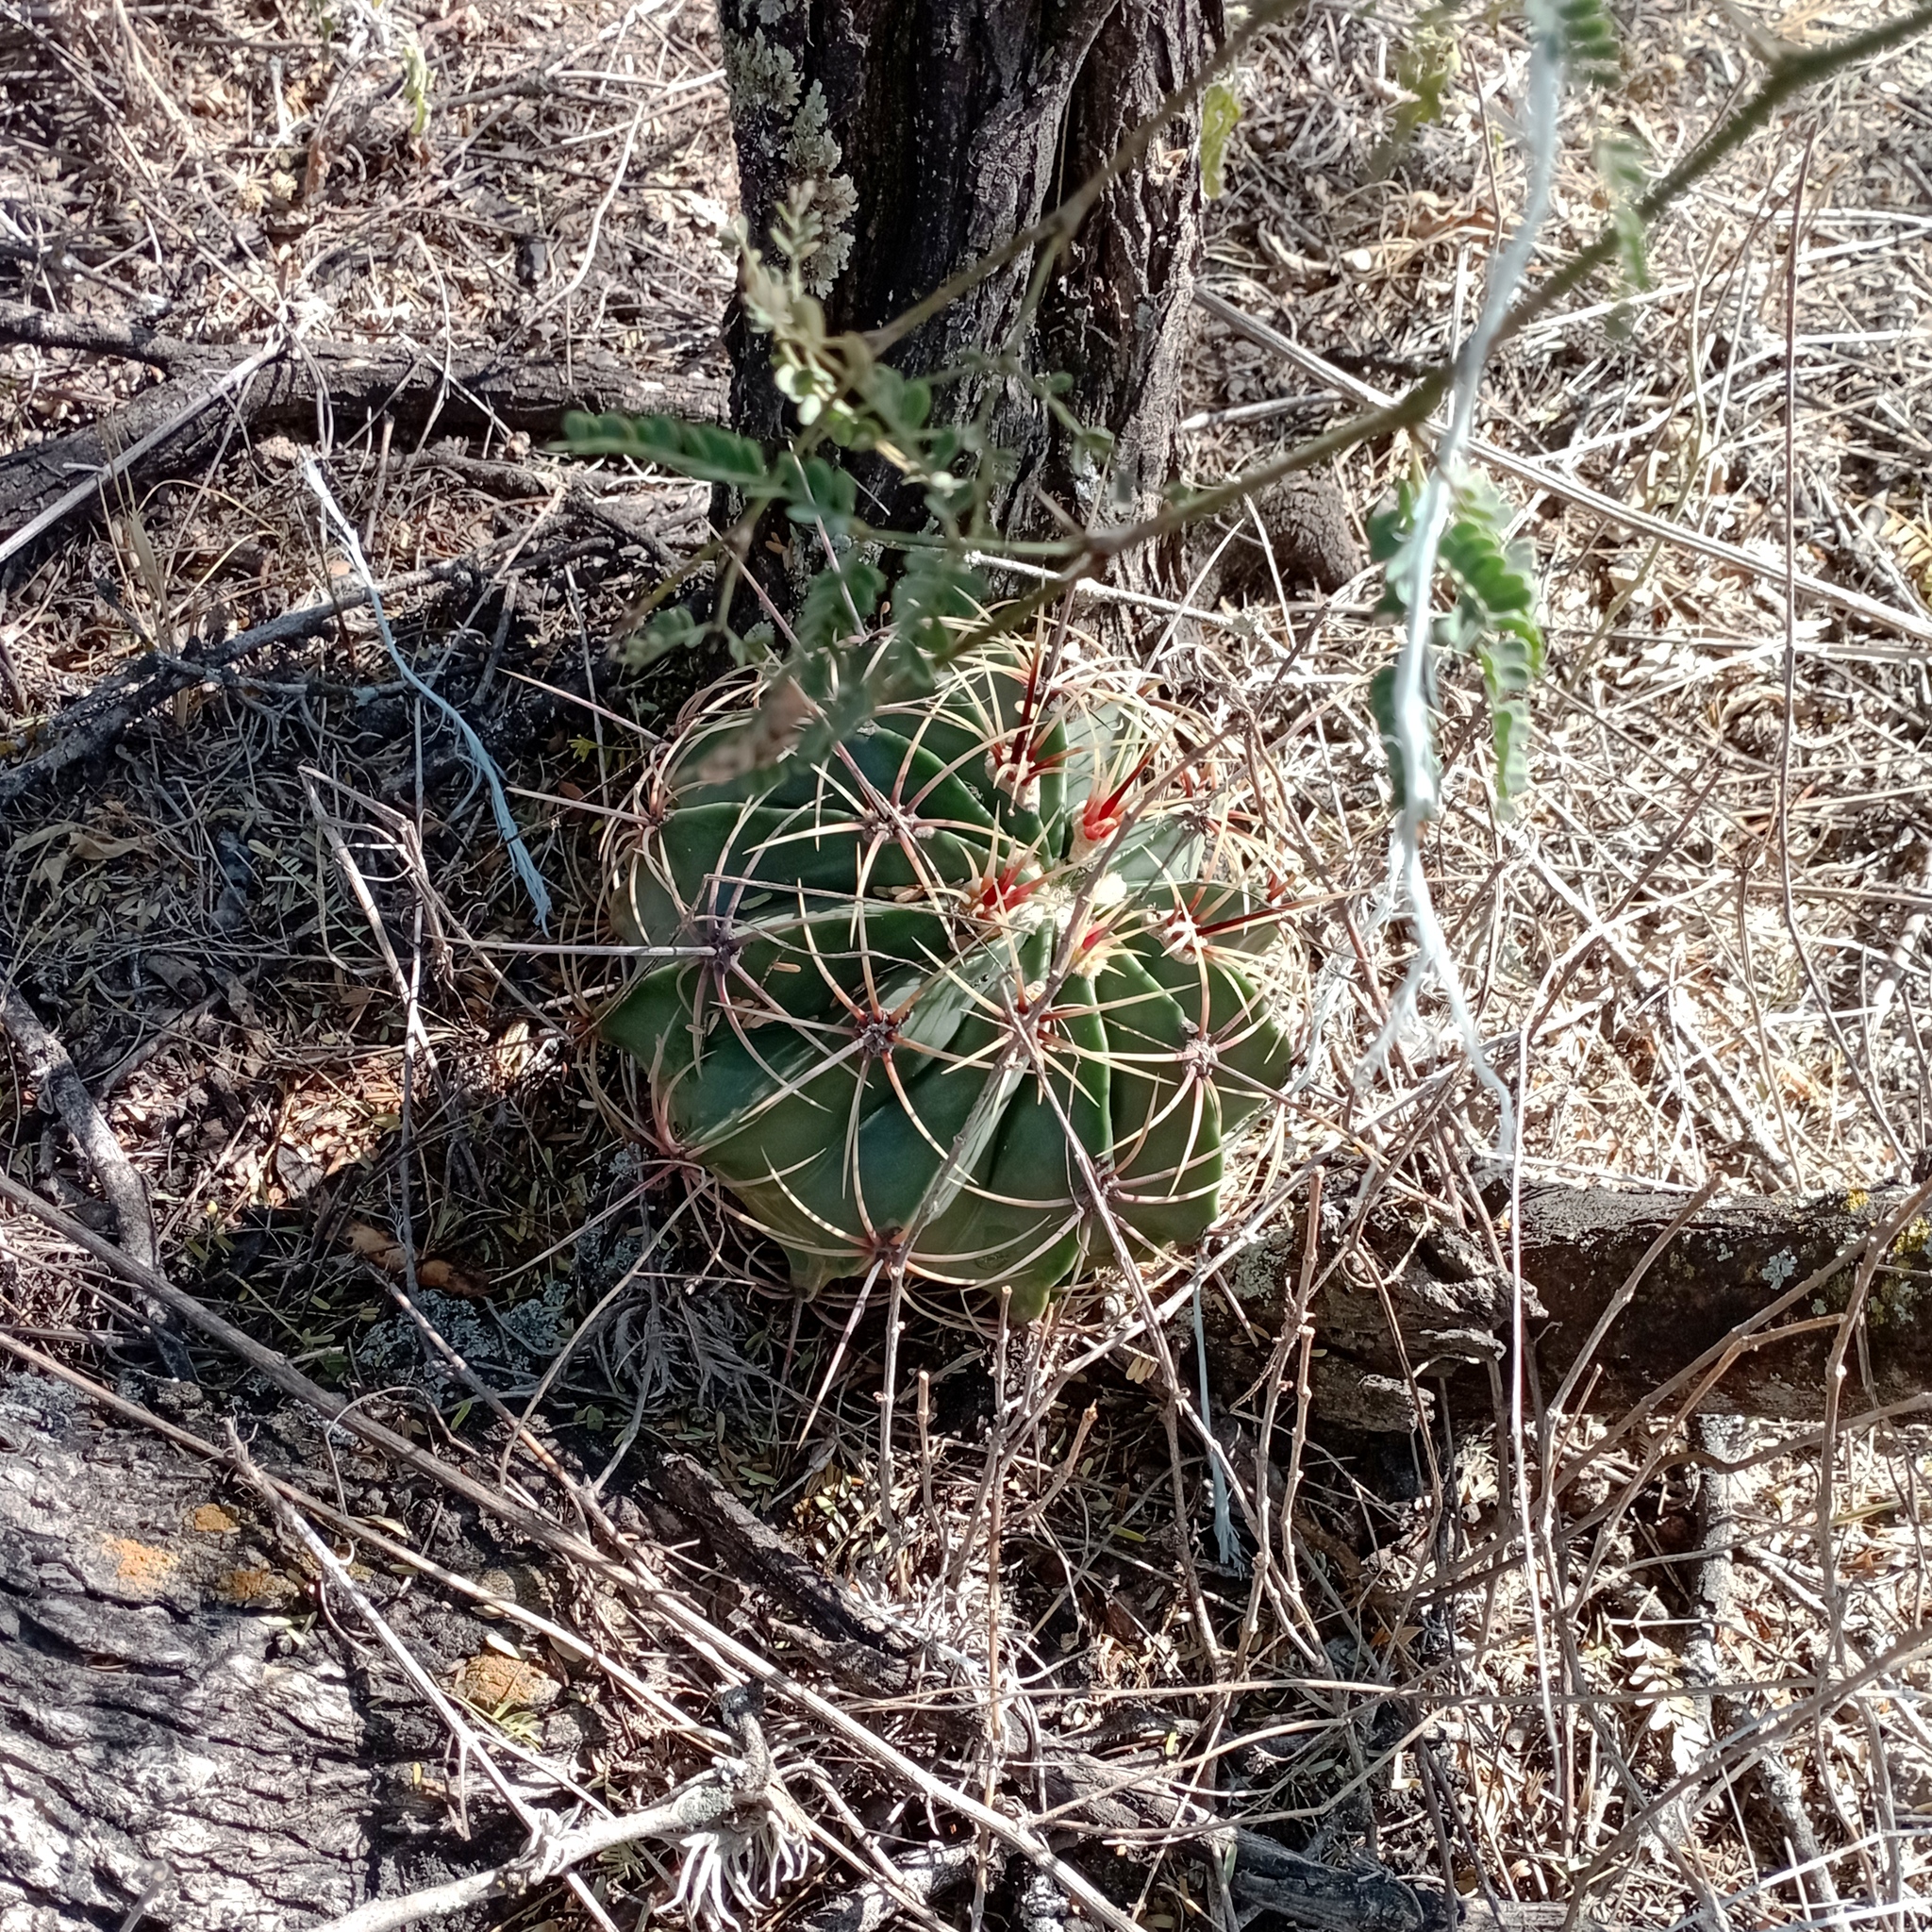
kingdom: Plantae
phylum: Tracheophyta
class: Magnoliopsida
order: Caryophyllales
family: Cactaceae
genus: Bisnaga
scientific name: Bisnaga histrix
